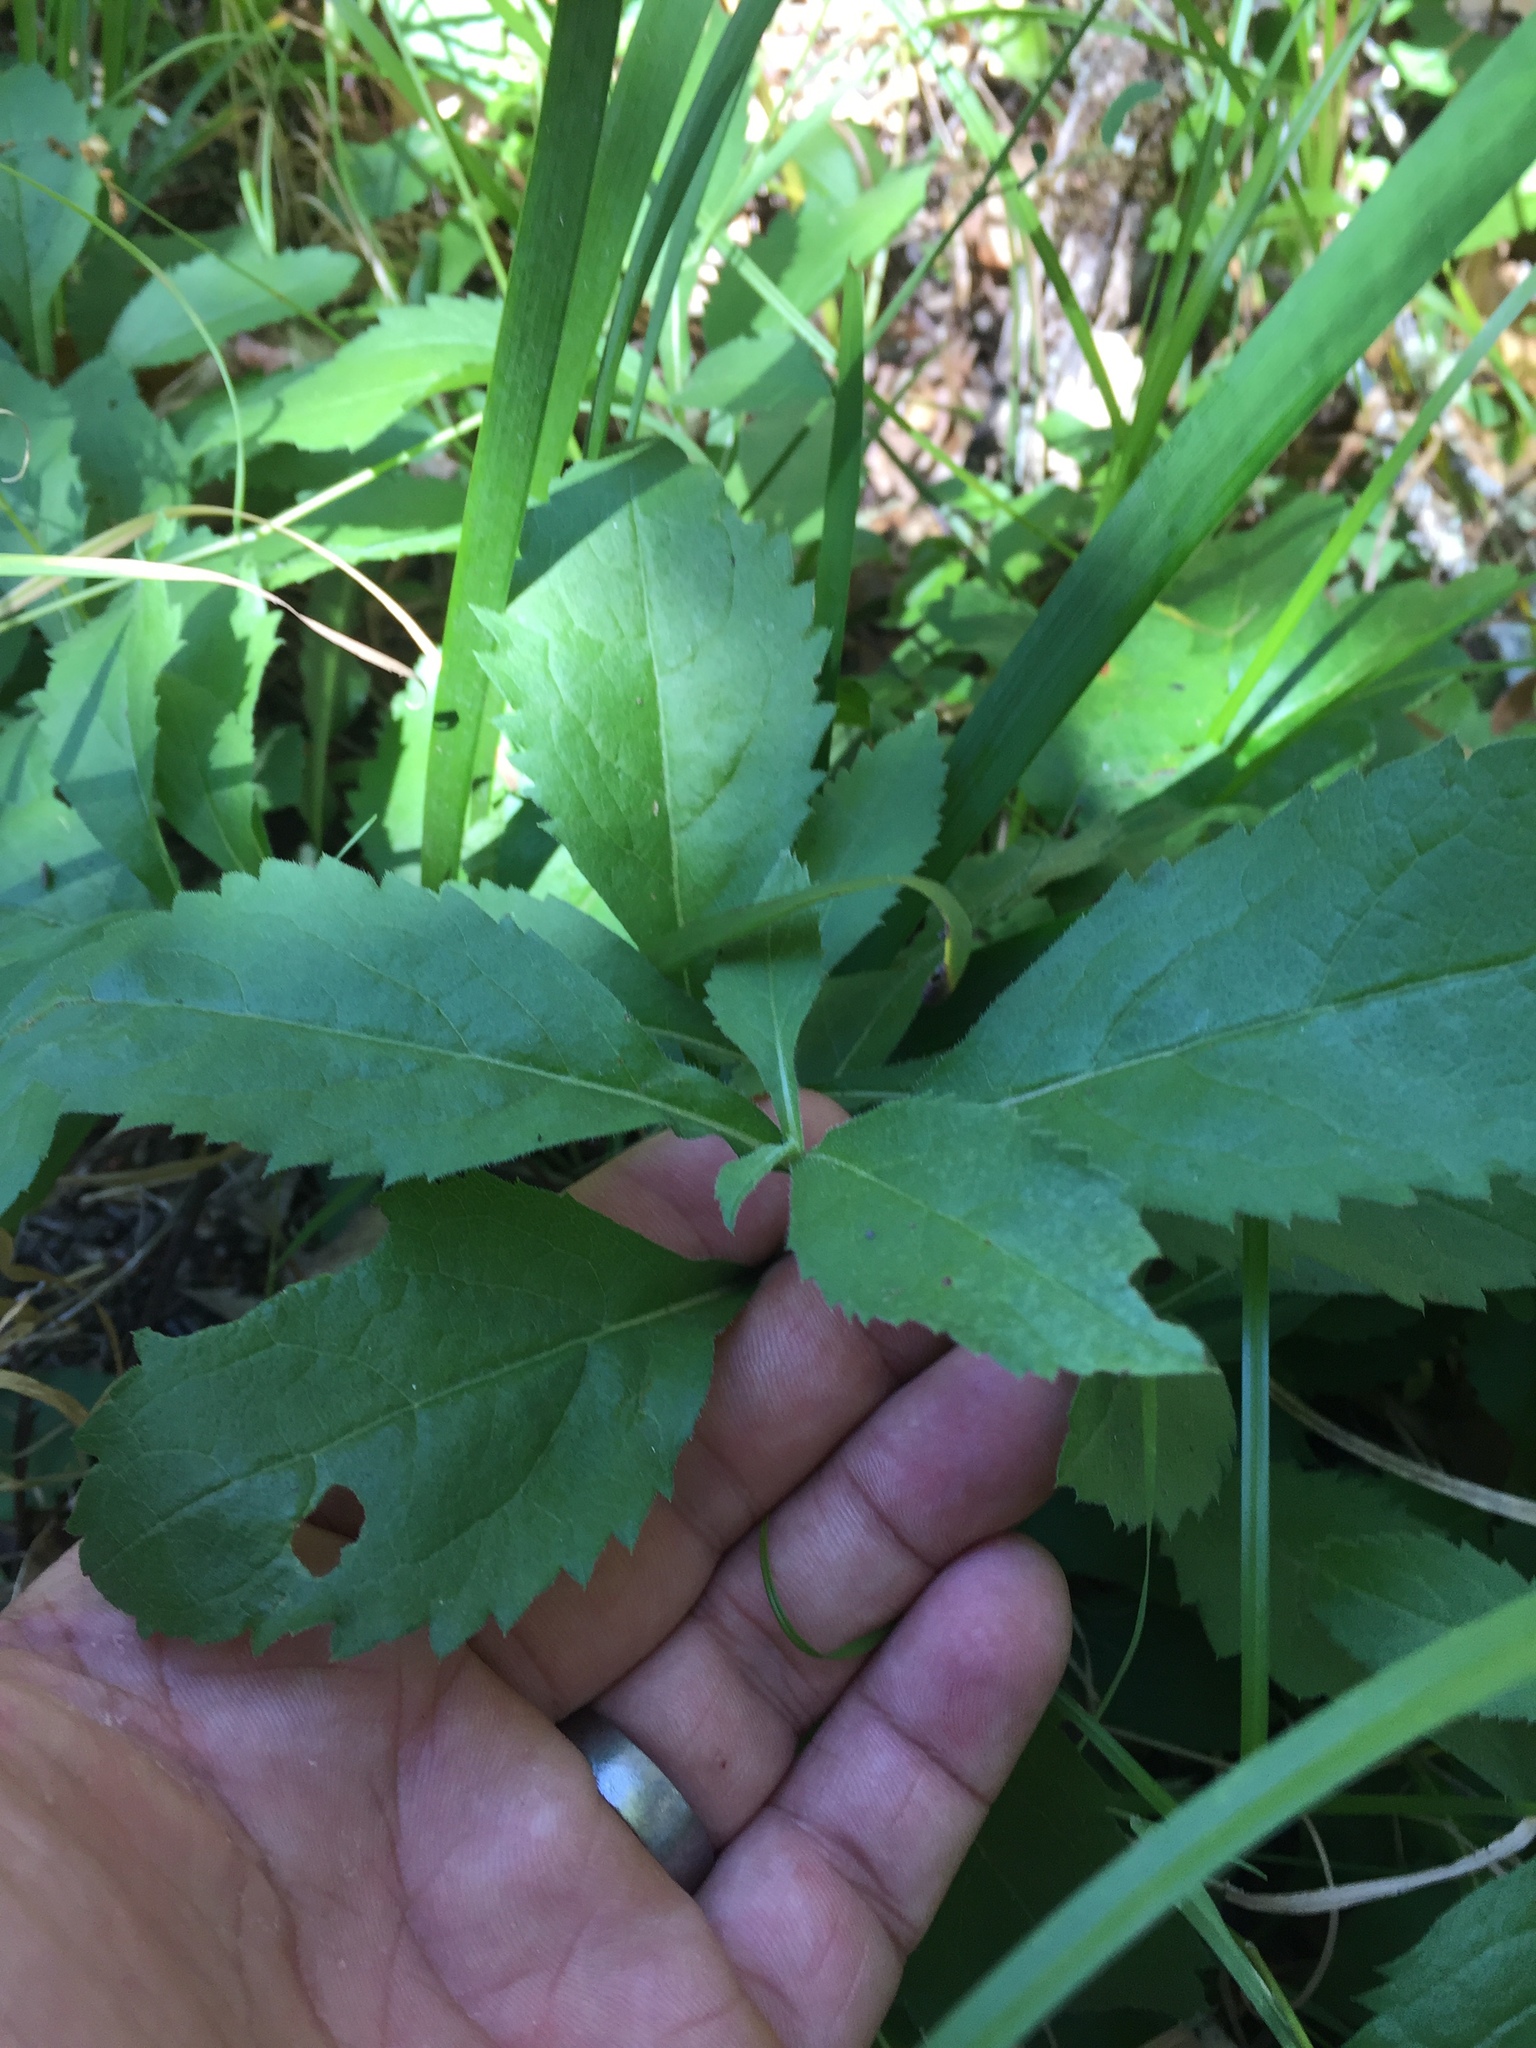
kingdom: Plantae
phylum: Tracheophyta
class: Magnoliopsida
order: Asterales
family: Asteraceae
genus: Eurybia
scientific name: Eurybia radulina
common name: Rough-leaved aster
